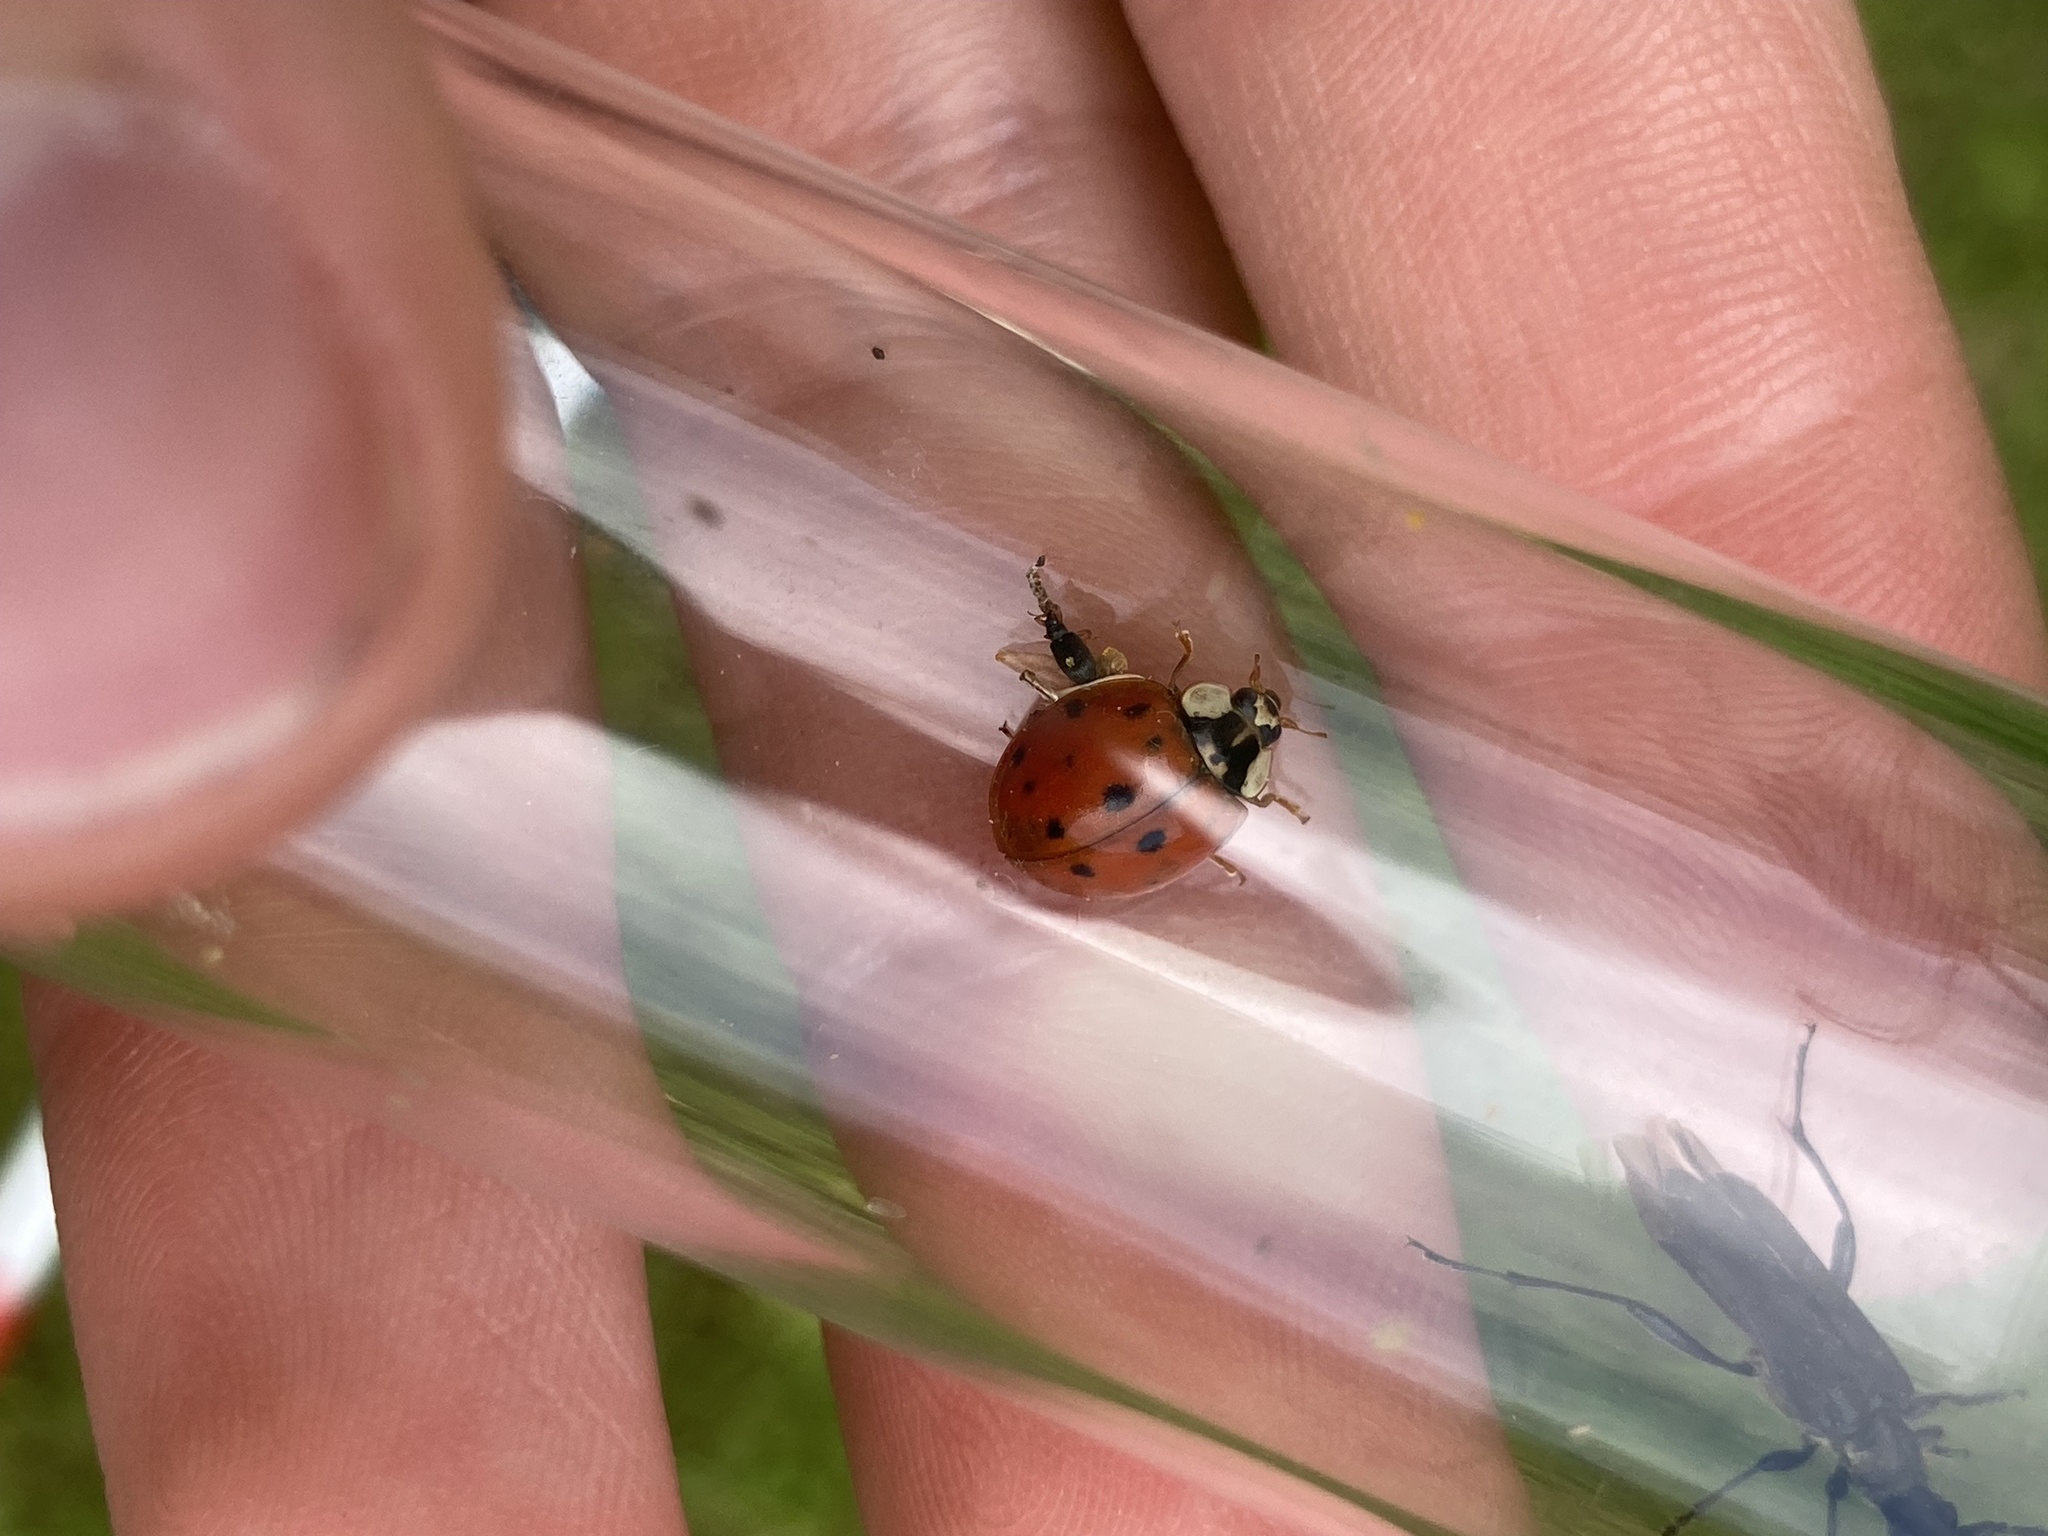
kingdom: Animalia
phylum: Arthropoda
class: Insecta
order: Coleoptera
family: Coccinellidae
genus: Harmonia
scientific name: Harmonia axyridis
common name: Harlequin ladybird
